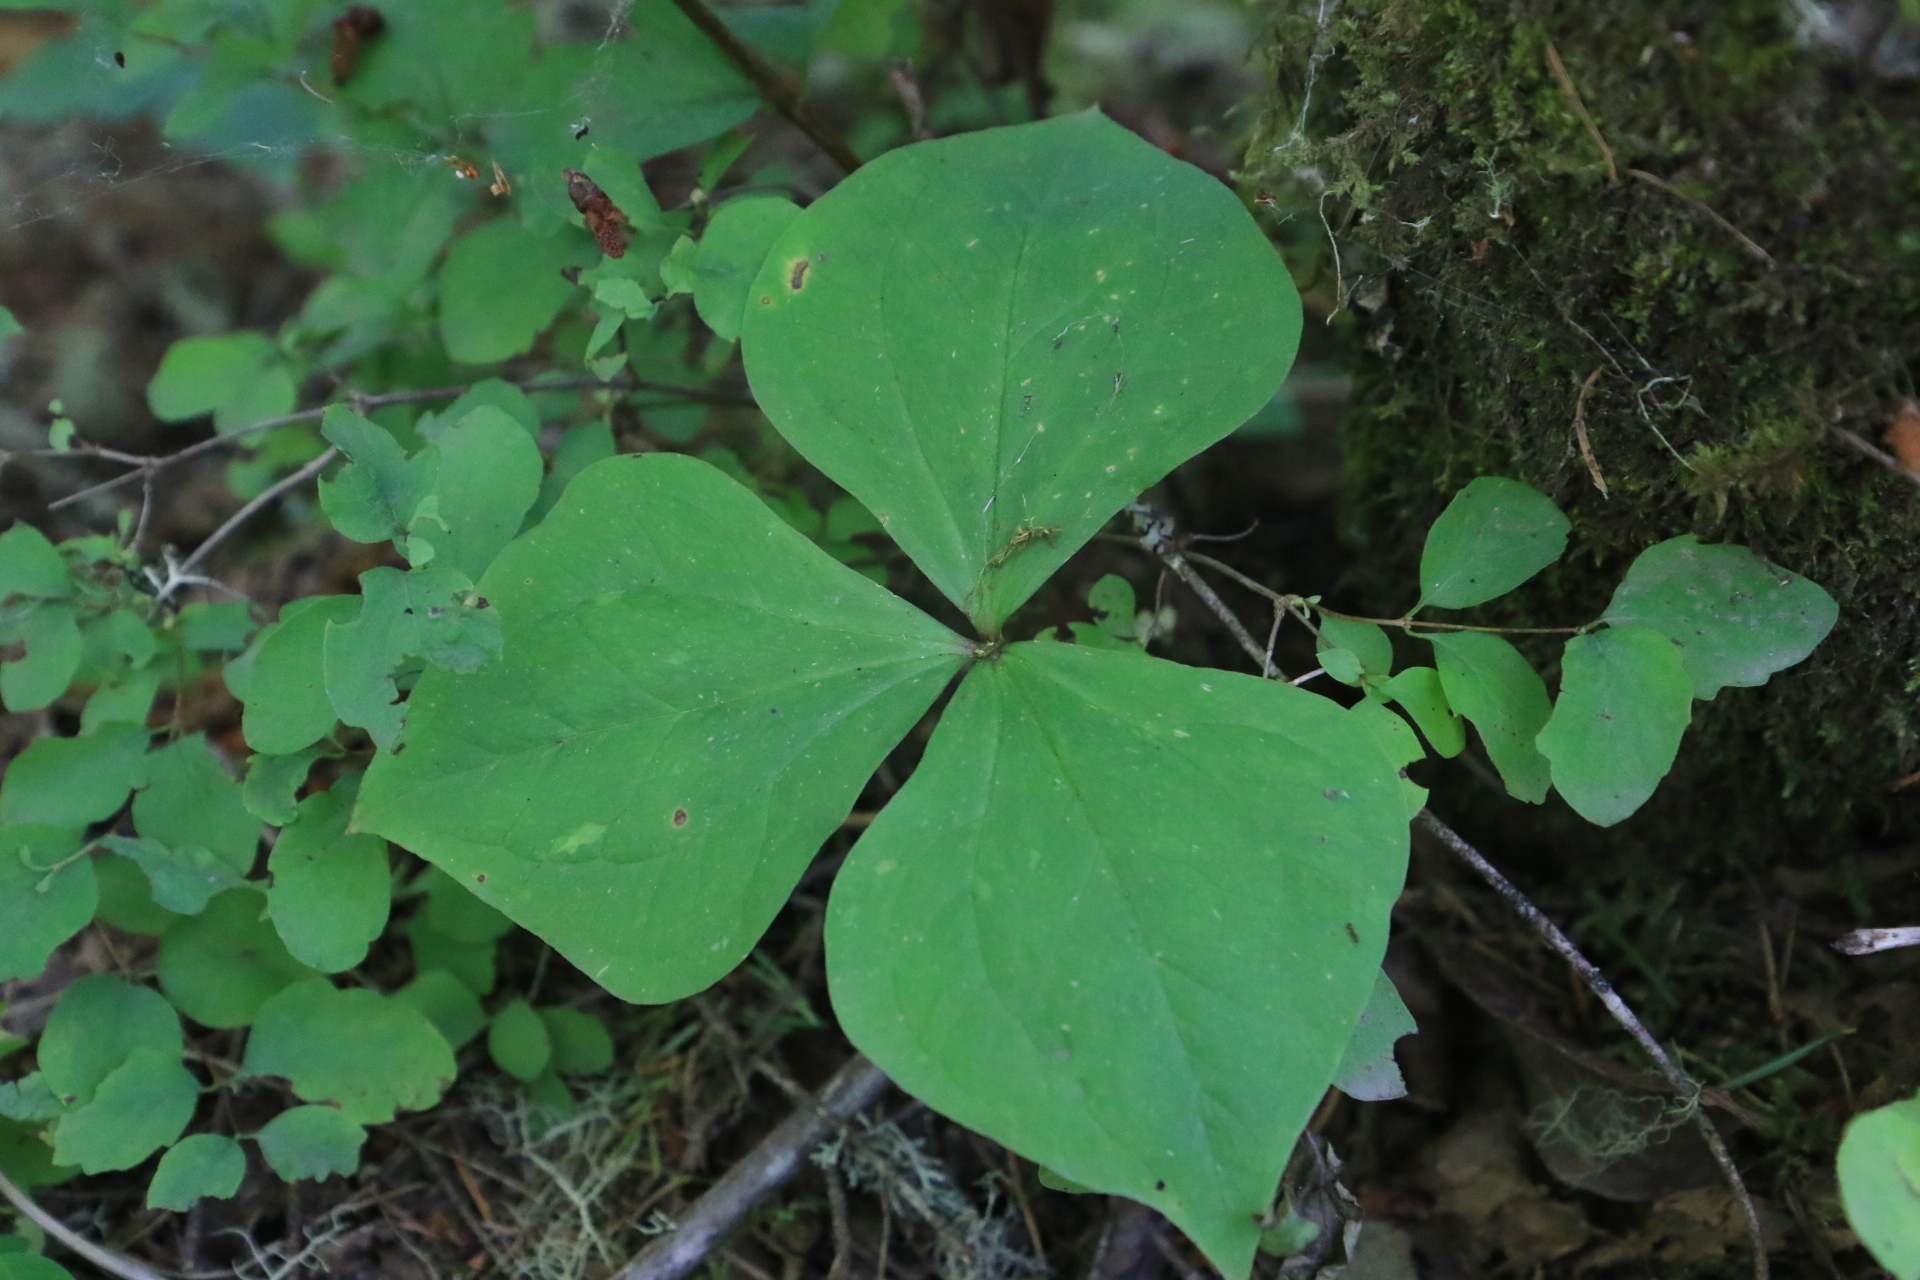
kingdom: Plantae
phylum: Tracheophyta
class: Liliopsida
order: Liliales
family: Melanthiaceae
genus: Trillium
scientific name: Trillium ovatum
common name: Pacific trillium
